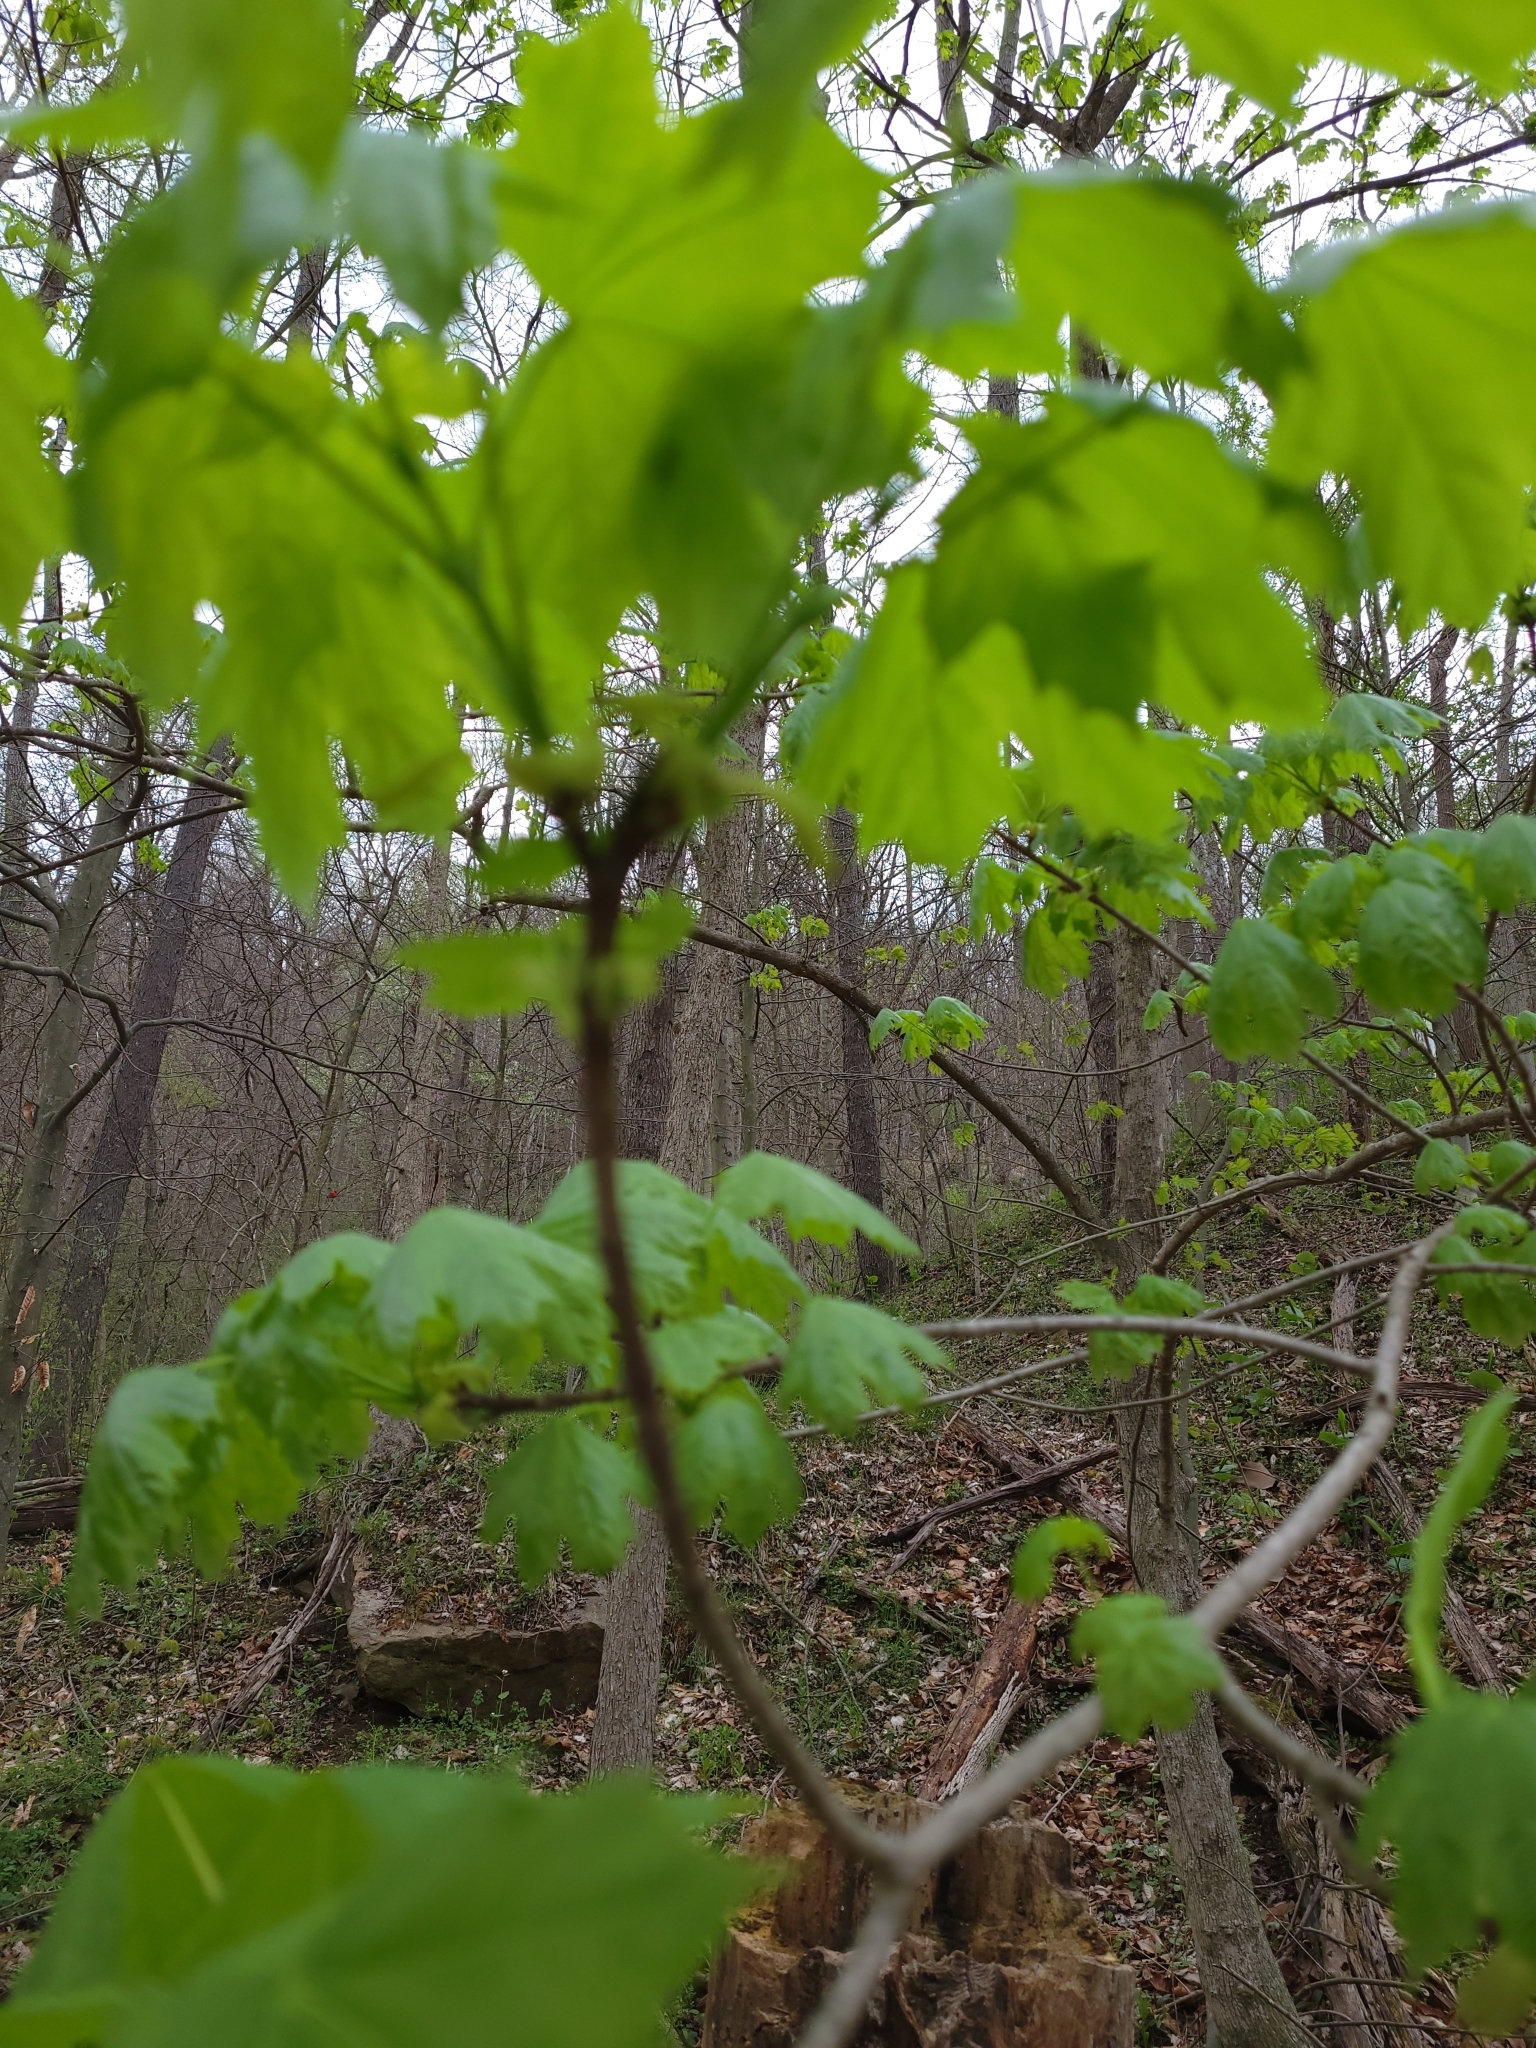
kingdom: Plantae
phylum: Tracheophyta
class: Magnoliopsida
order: Sapindales
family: Sapindaceae
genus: Acer
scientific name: Acer platanoides
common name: Norway maple
